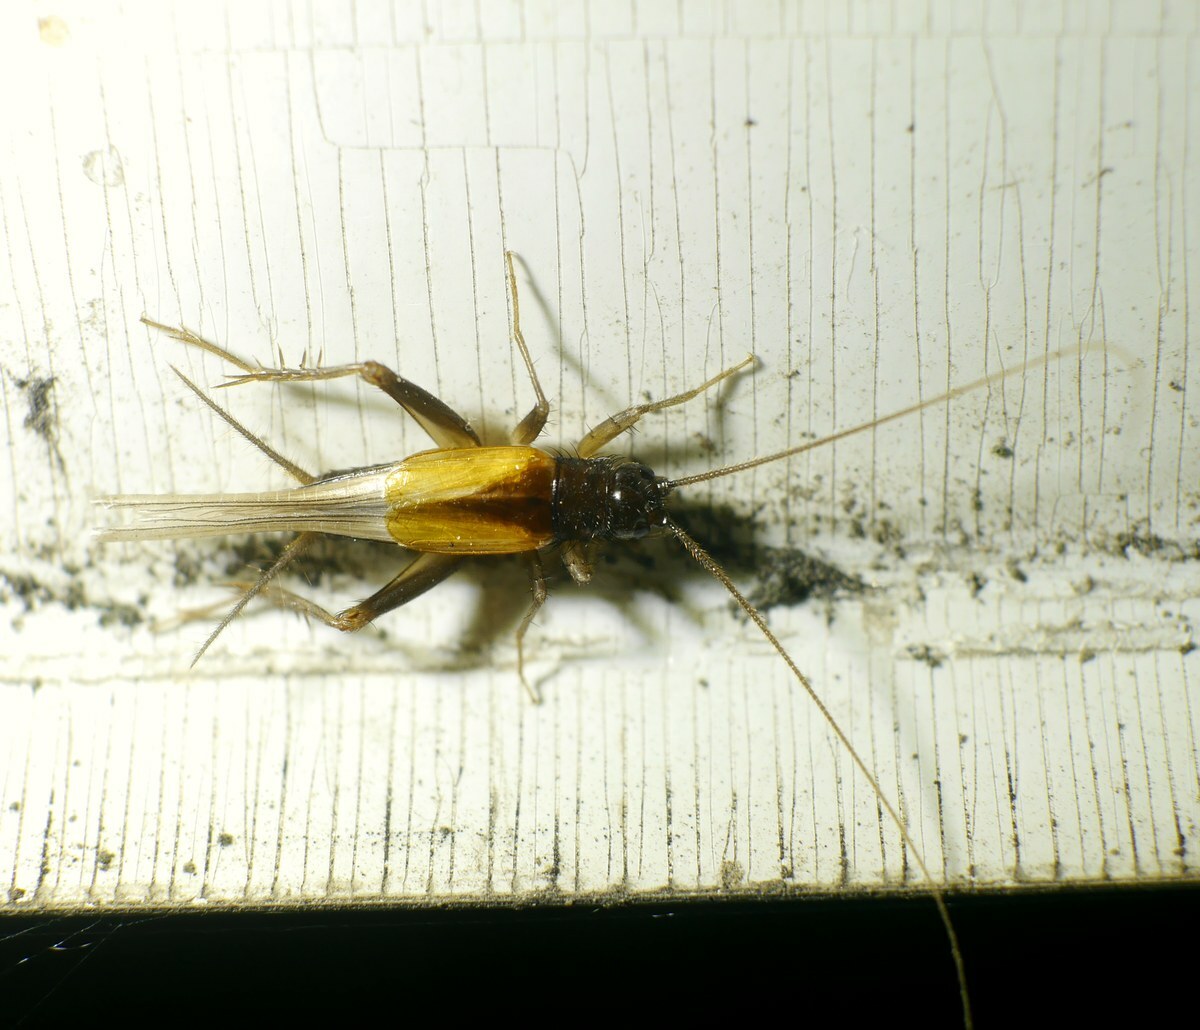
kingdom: Animalia
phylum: Arthropoda
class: Insecta
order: Orthoptera
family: Trigonidiidae
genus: Stenonemobius
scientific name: Stenonemobius bicolor
